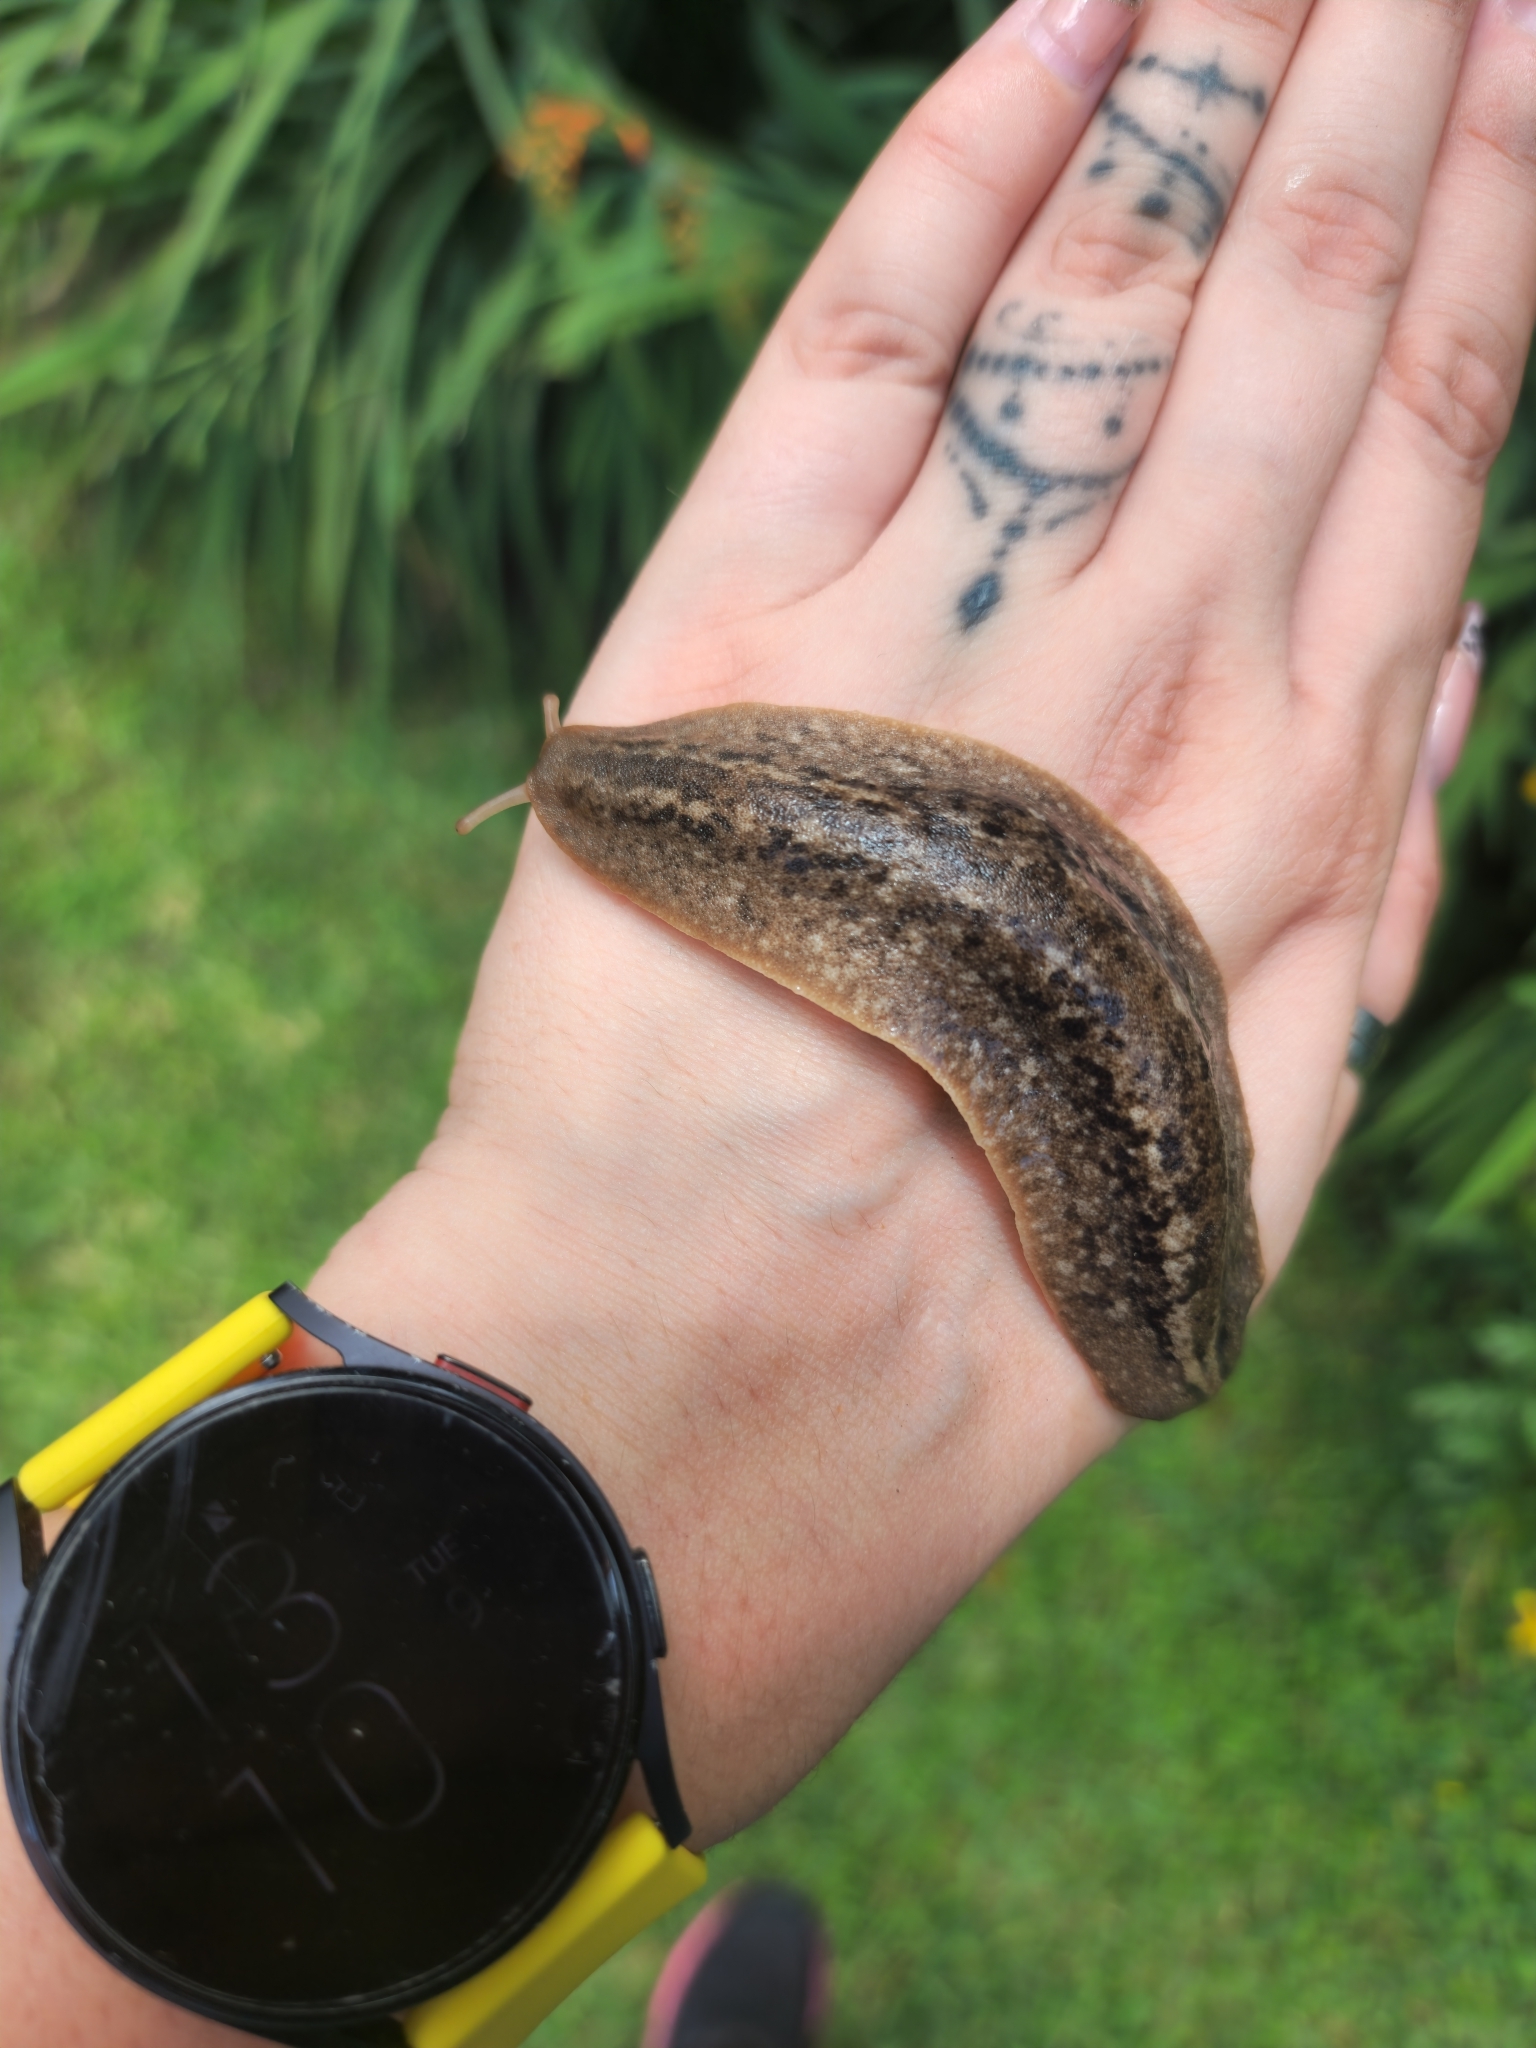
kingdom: Animalia
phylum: Mollusca
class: Gastropoda
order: Systellommatophora
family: Veronicellidae
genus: Phyllocaulis
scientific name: Phyllocaulis soleiformis
